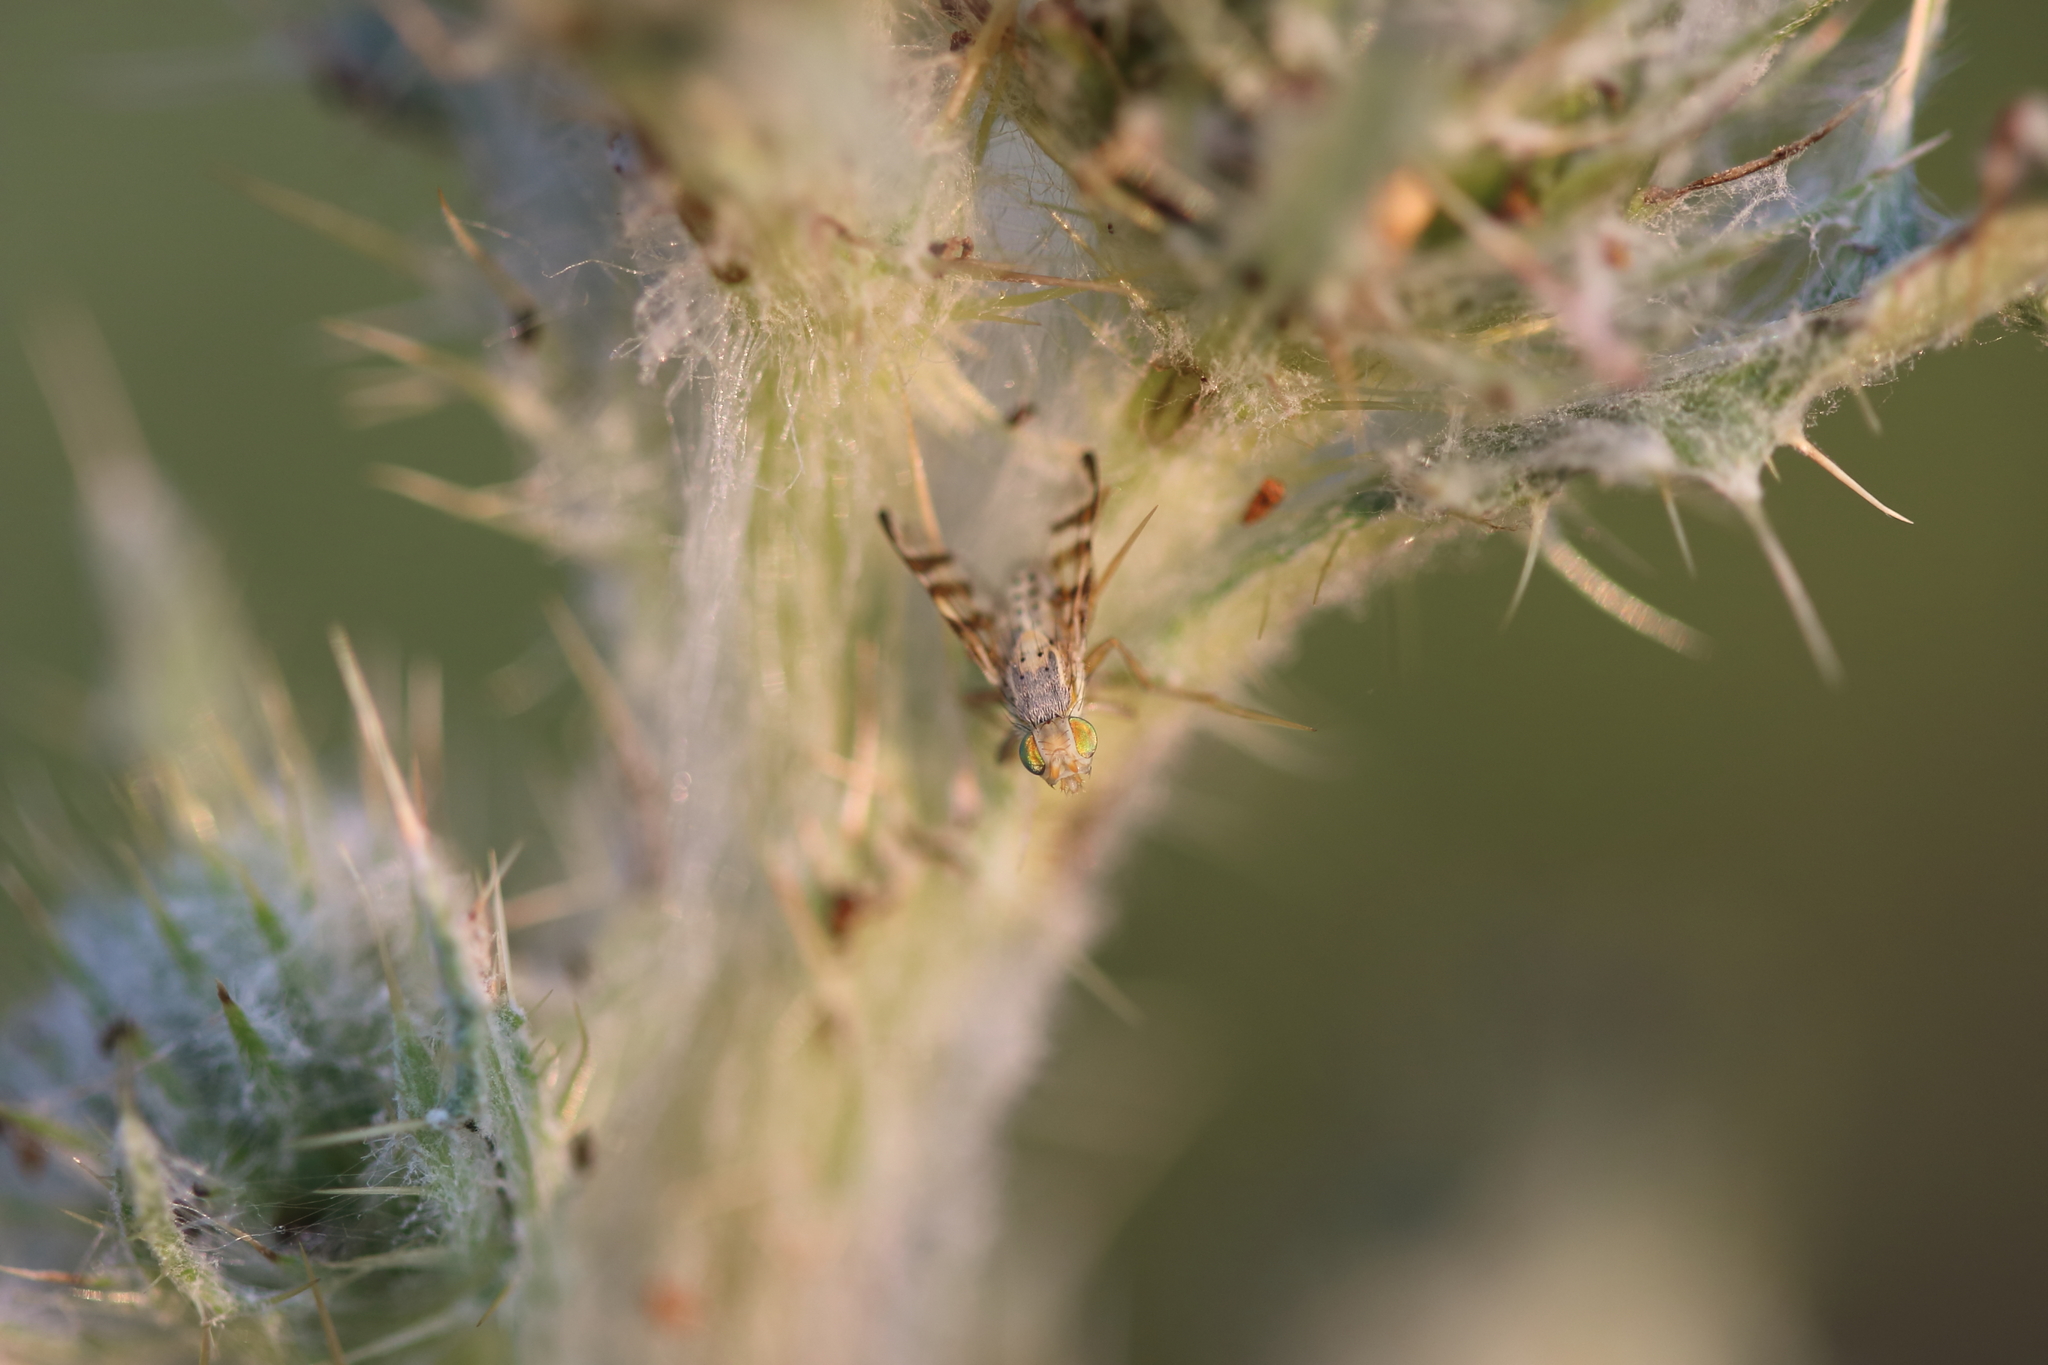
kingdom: Animalia
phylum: Arthropoda
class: Insecta
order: Diptera
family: Tephritidae
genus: Terellia
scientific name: Terellia occidentalis
